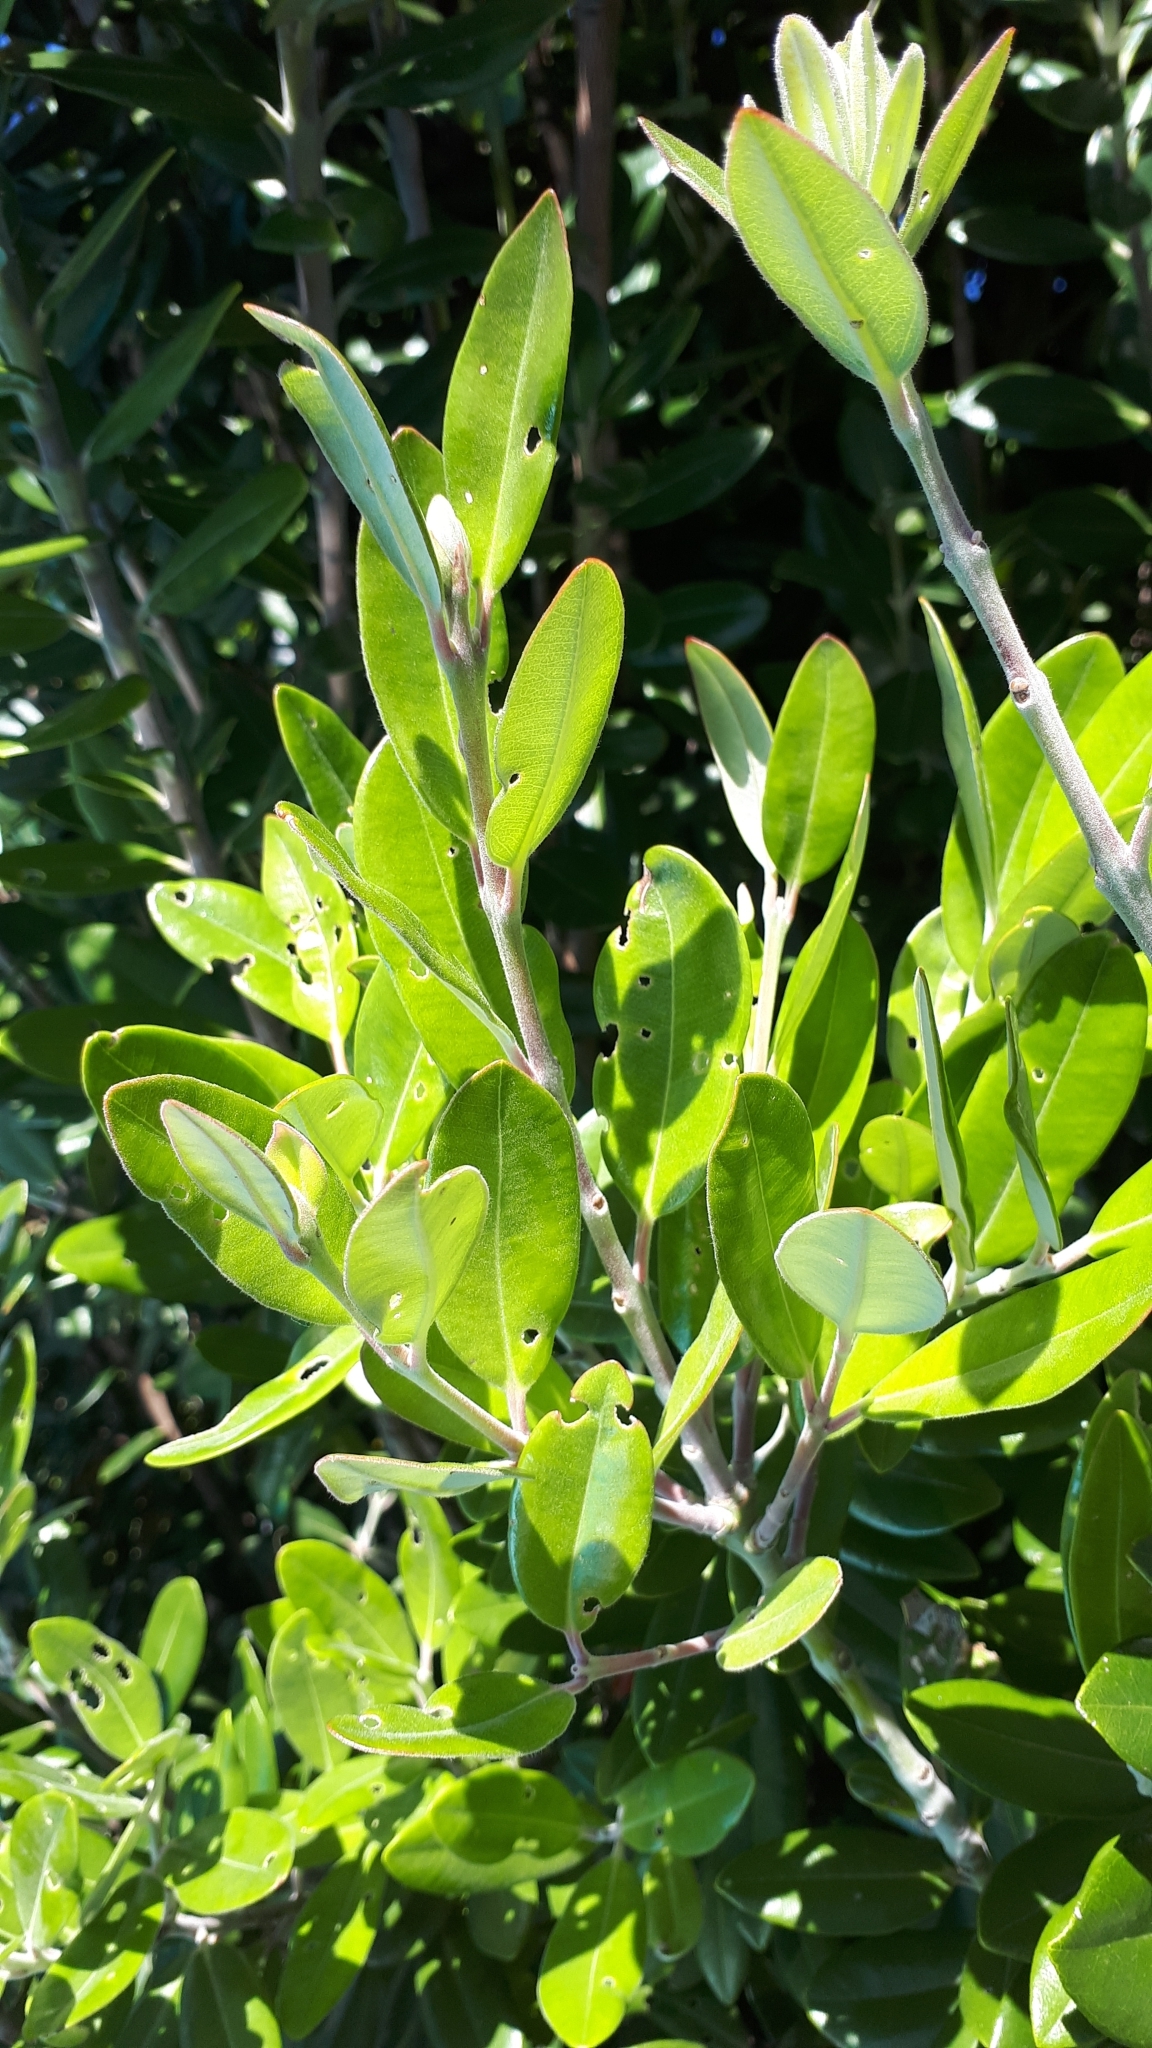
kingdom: Plantae
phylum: Tracheophyta
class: Magnoliopsida
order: Myrtales
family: Myrtaceae
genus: Metrosideros
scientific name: Metrosideros excelsa
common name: New zealand christmastree
